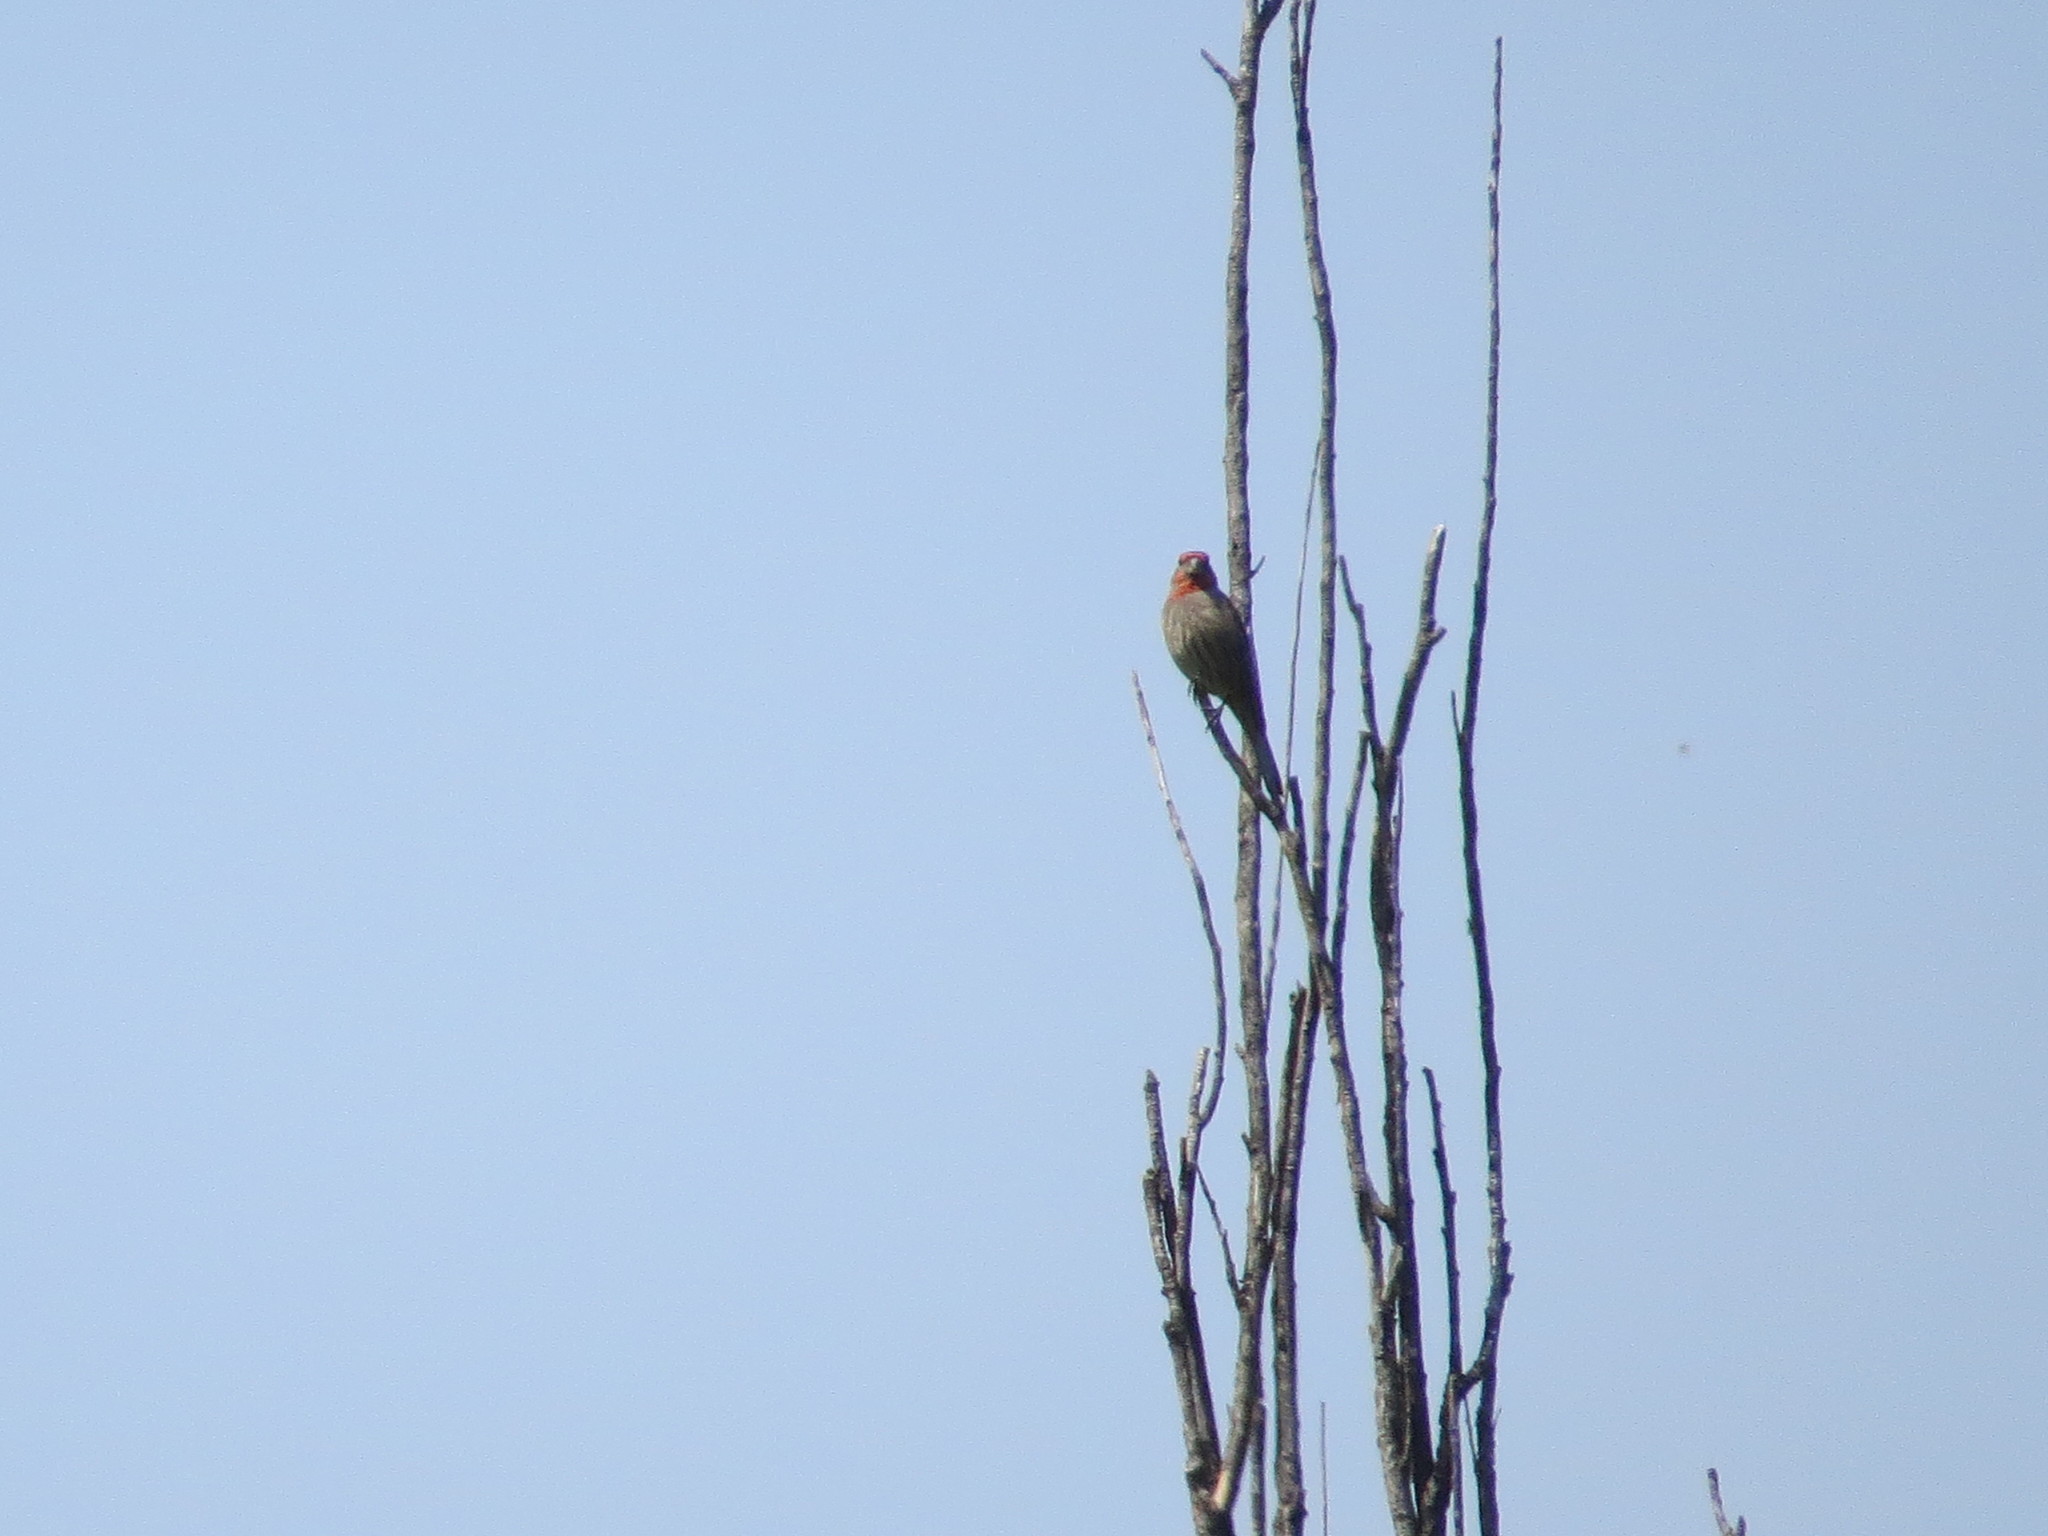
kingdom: Animalia
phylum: Chordata
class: Aves
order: Passeriformes
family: Fringillidae
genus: Haemorhous
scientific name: Haemorhous mexicanus
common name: House finch
